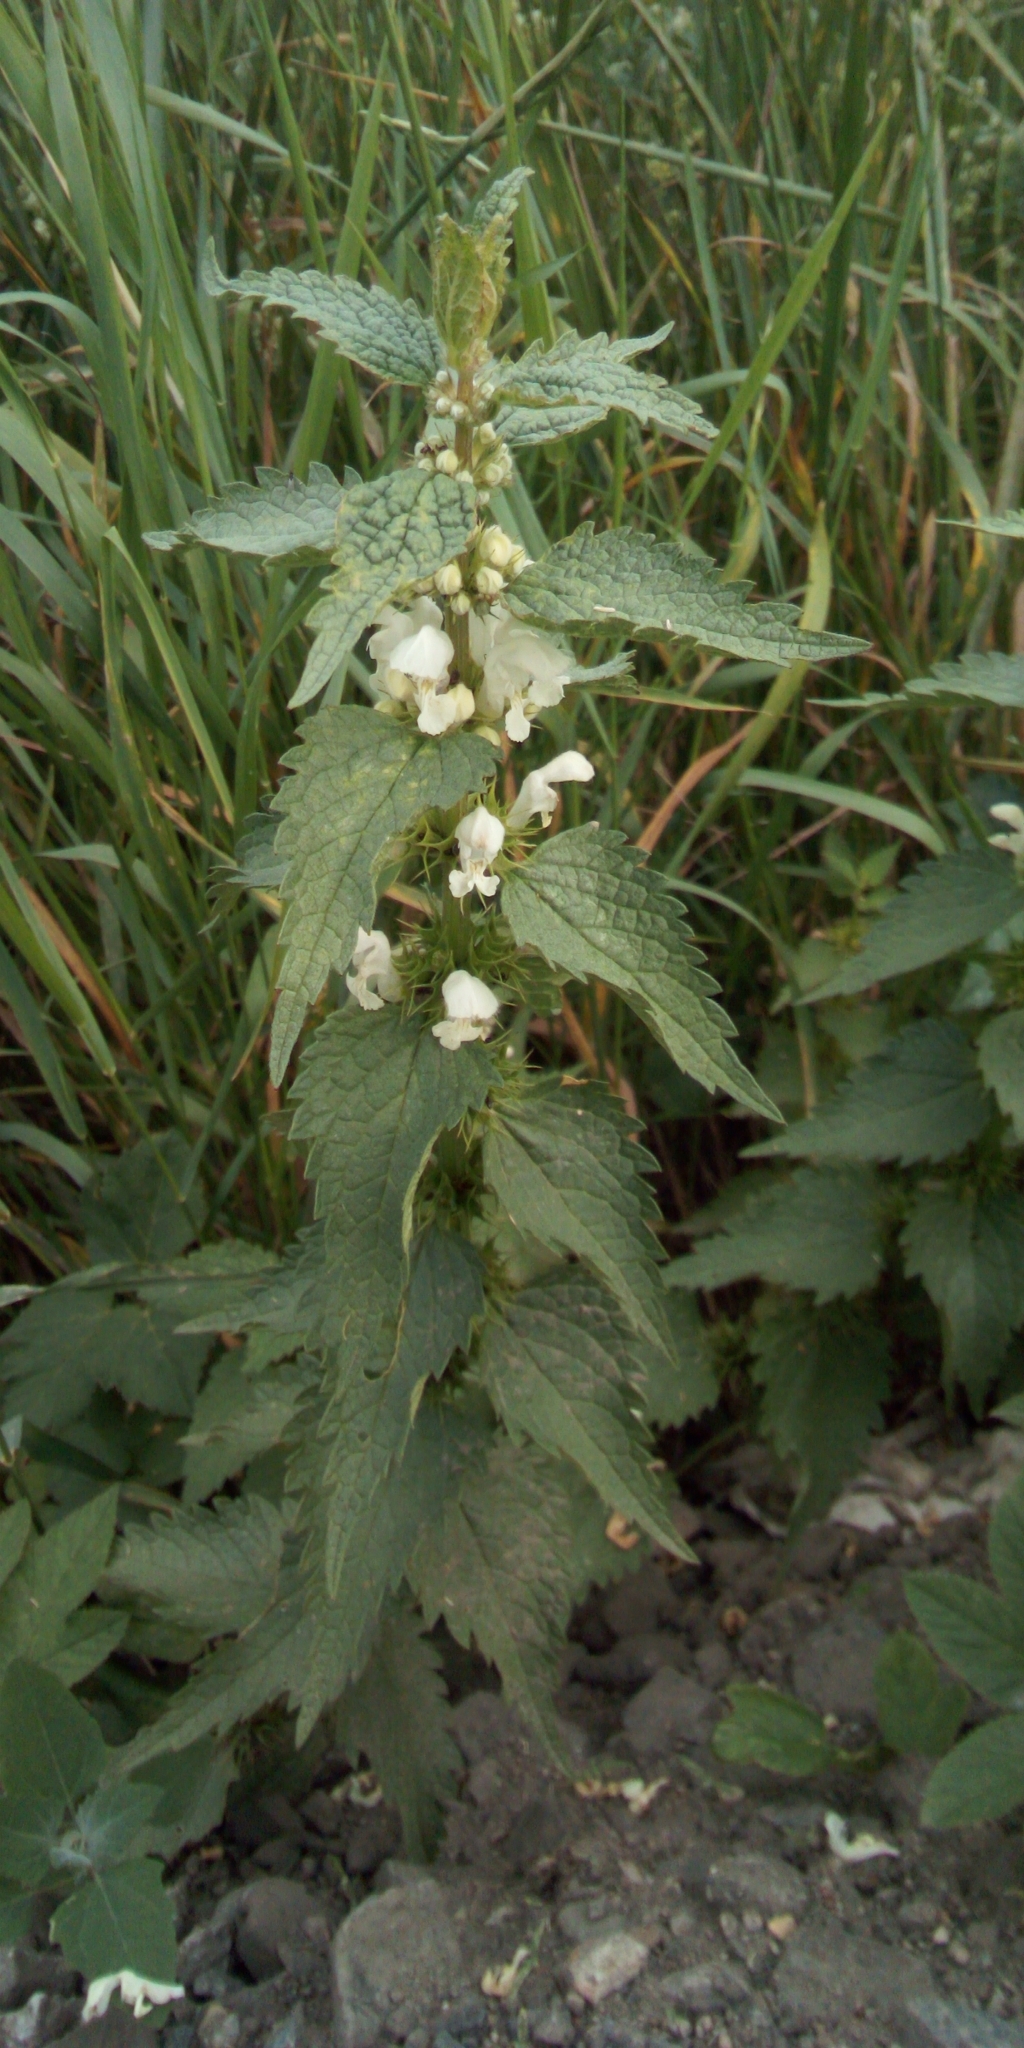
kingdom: Plantae
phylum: Tracheophyta
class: Magnoliopsida
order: Lamiales
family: Lamiaceae
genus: Lamium
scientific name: Lamium album
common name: White dead-nettle
